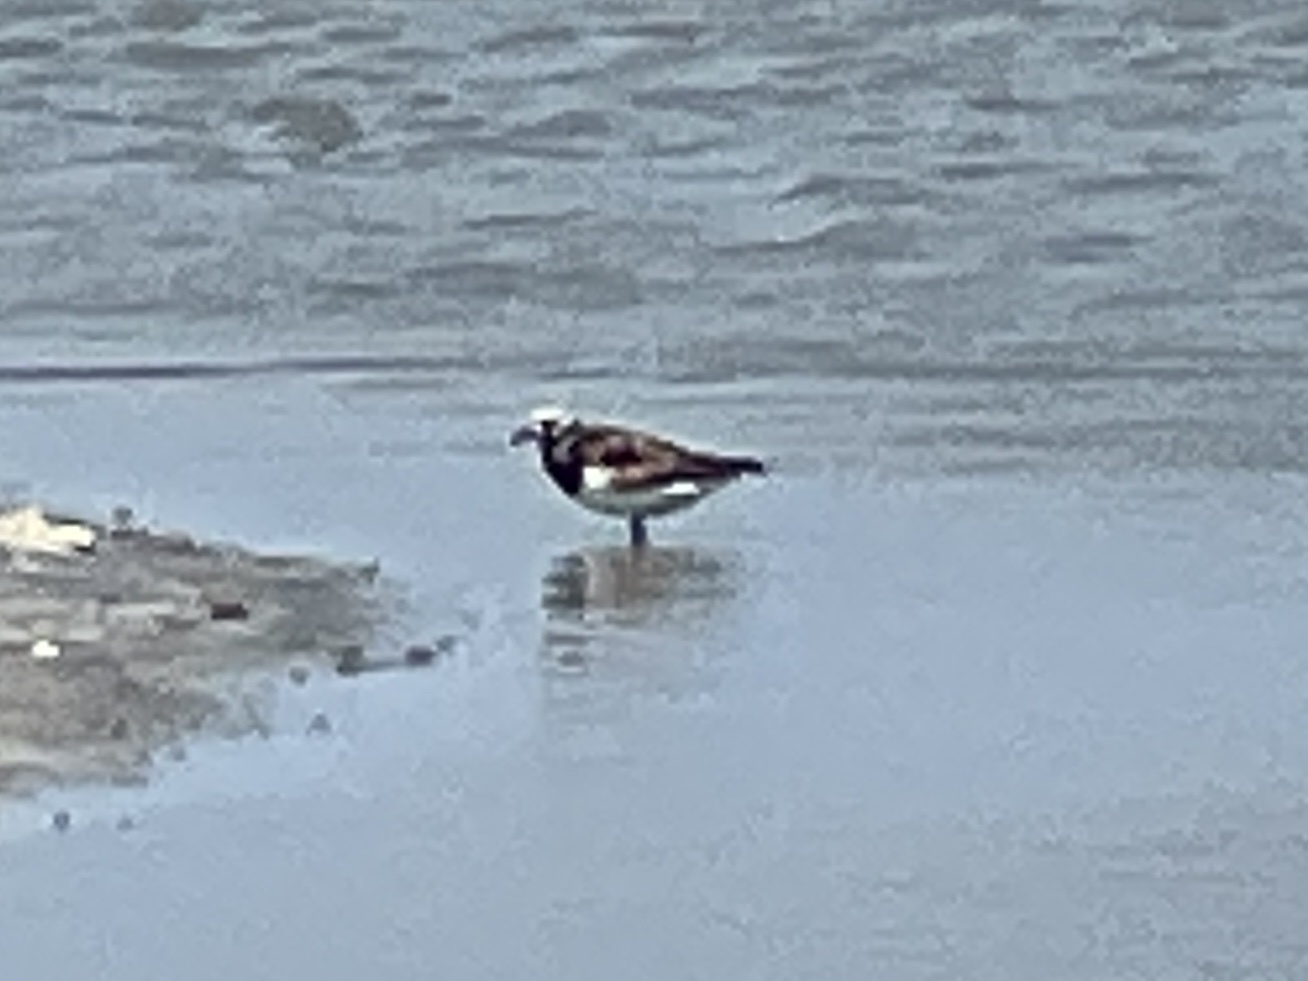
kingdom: Animalia
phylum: Chordata
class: Aves
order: Charadriiformes
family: Scolopacidae
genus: Arenaria
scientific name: Arenaria interpres
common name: Ruddy turnstone
